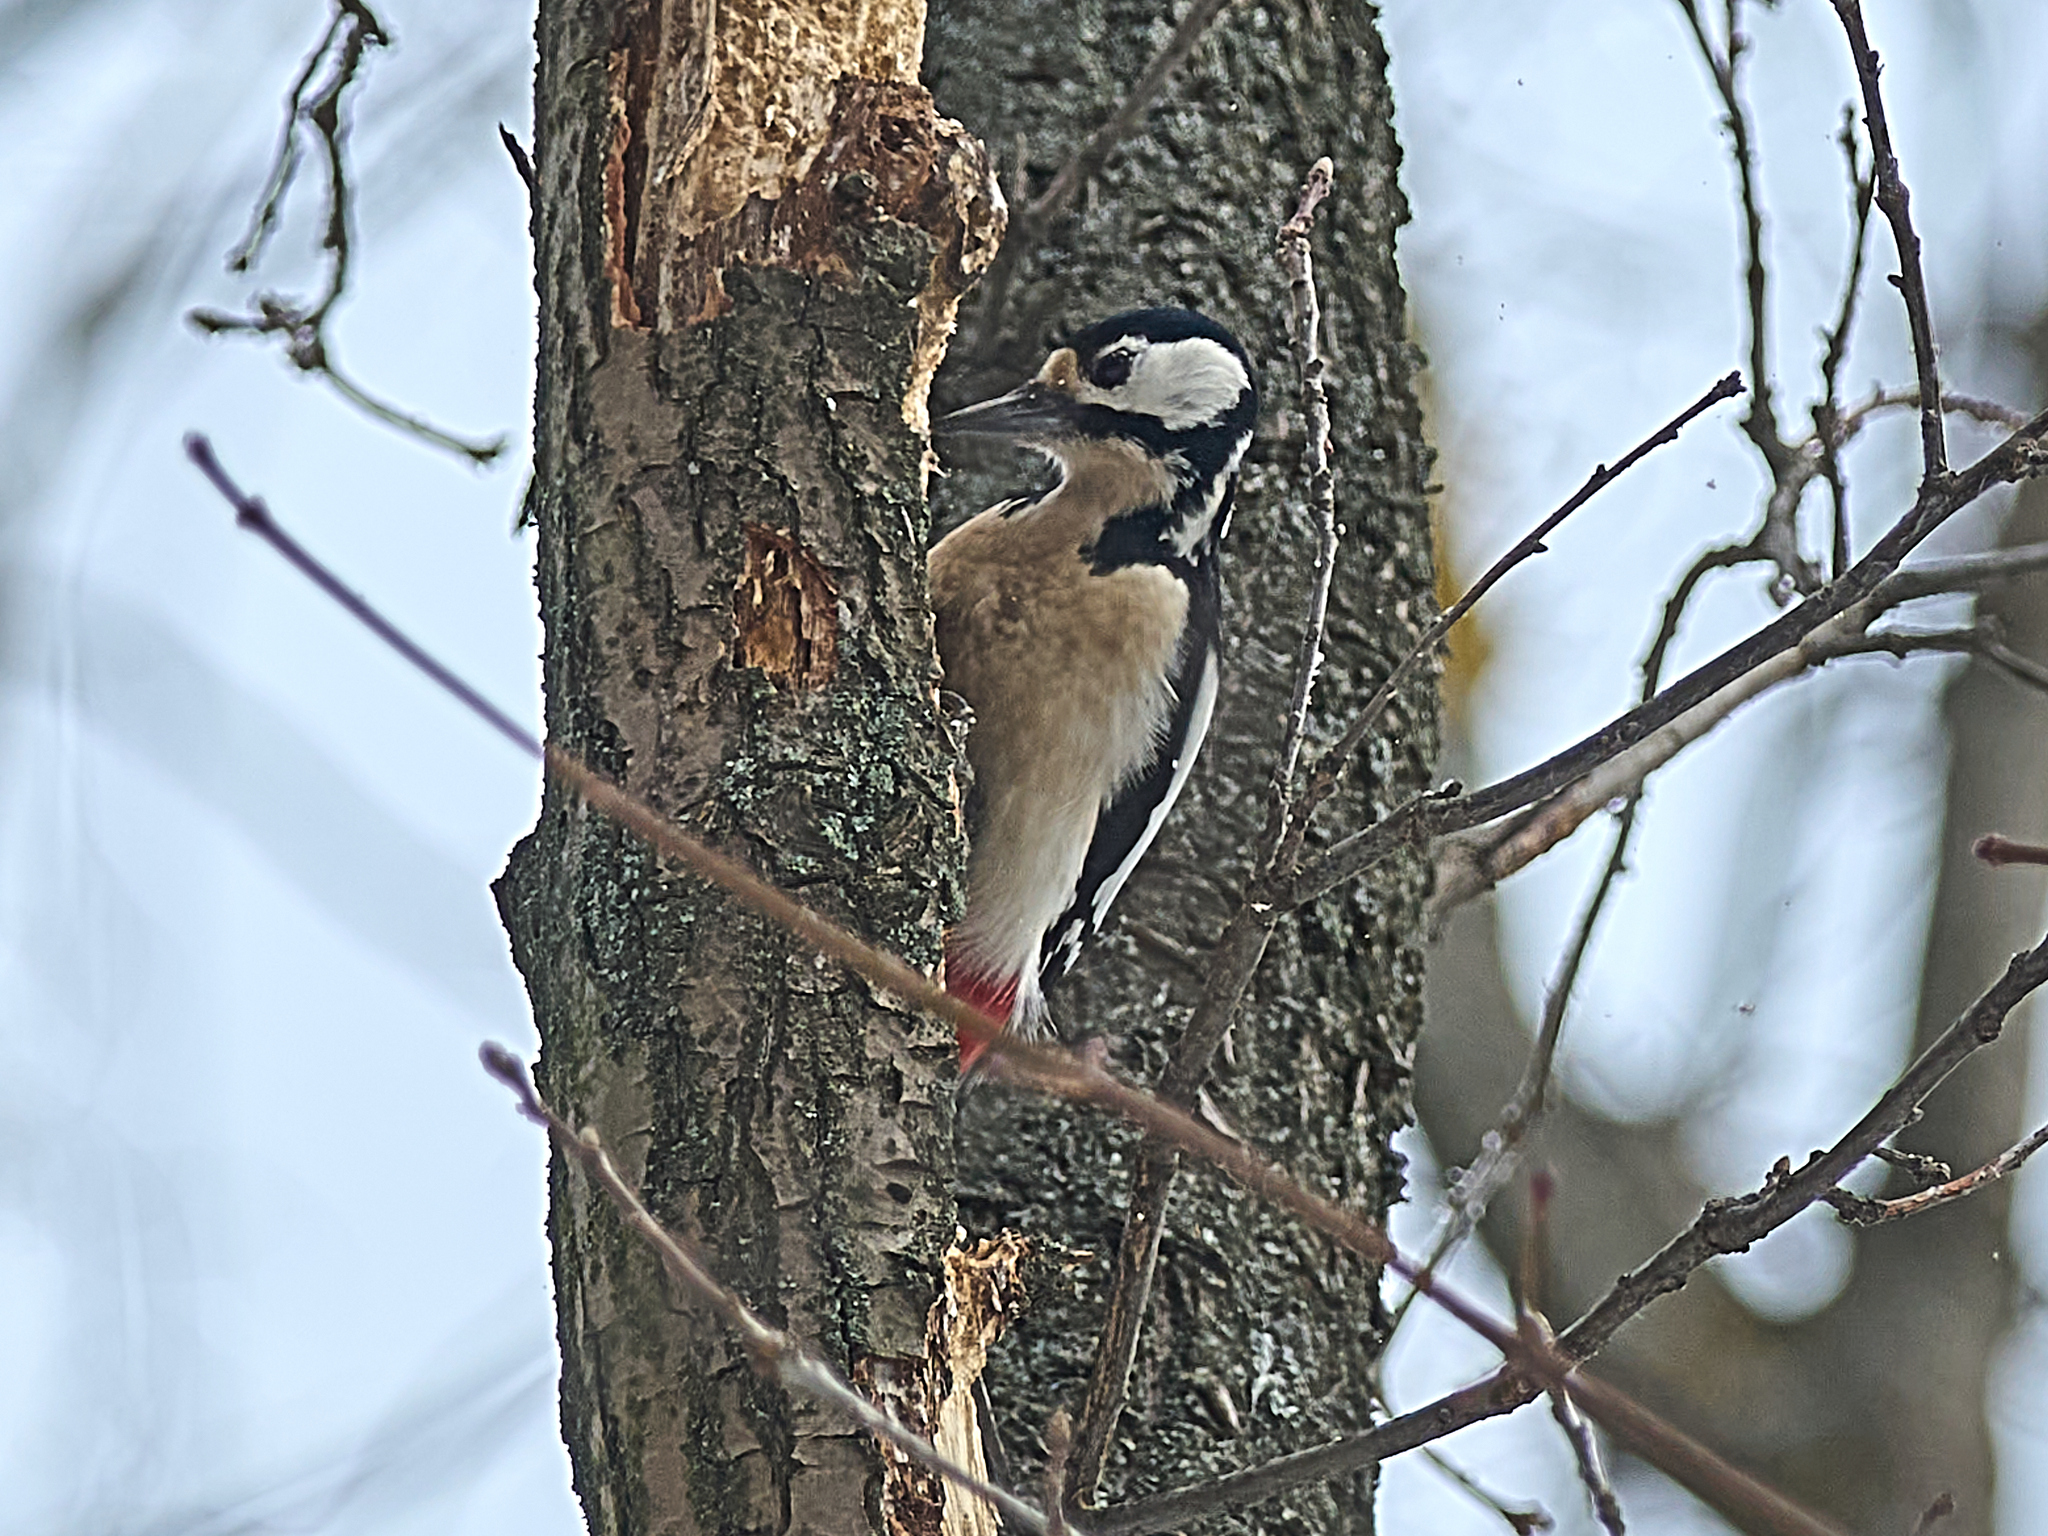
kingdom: Animalia
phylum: Chordata
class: Aves
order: Piciformes
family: Picidae
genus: Dendrocopos
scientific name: Dendrocopos major
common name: Great spotted woodpecker
